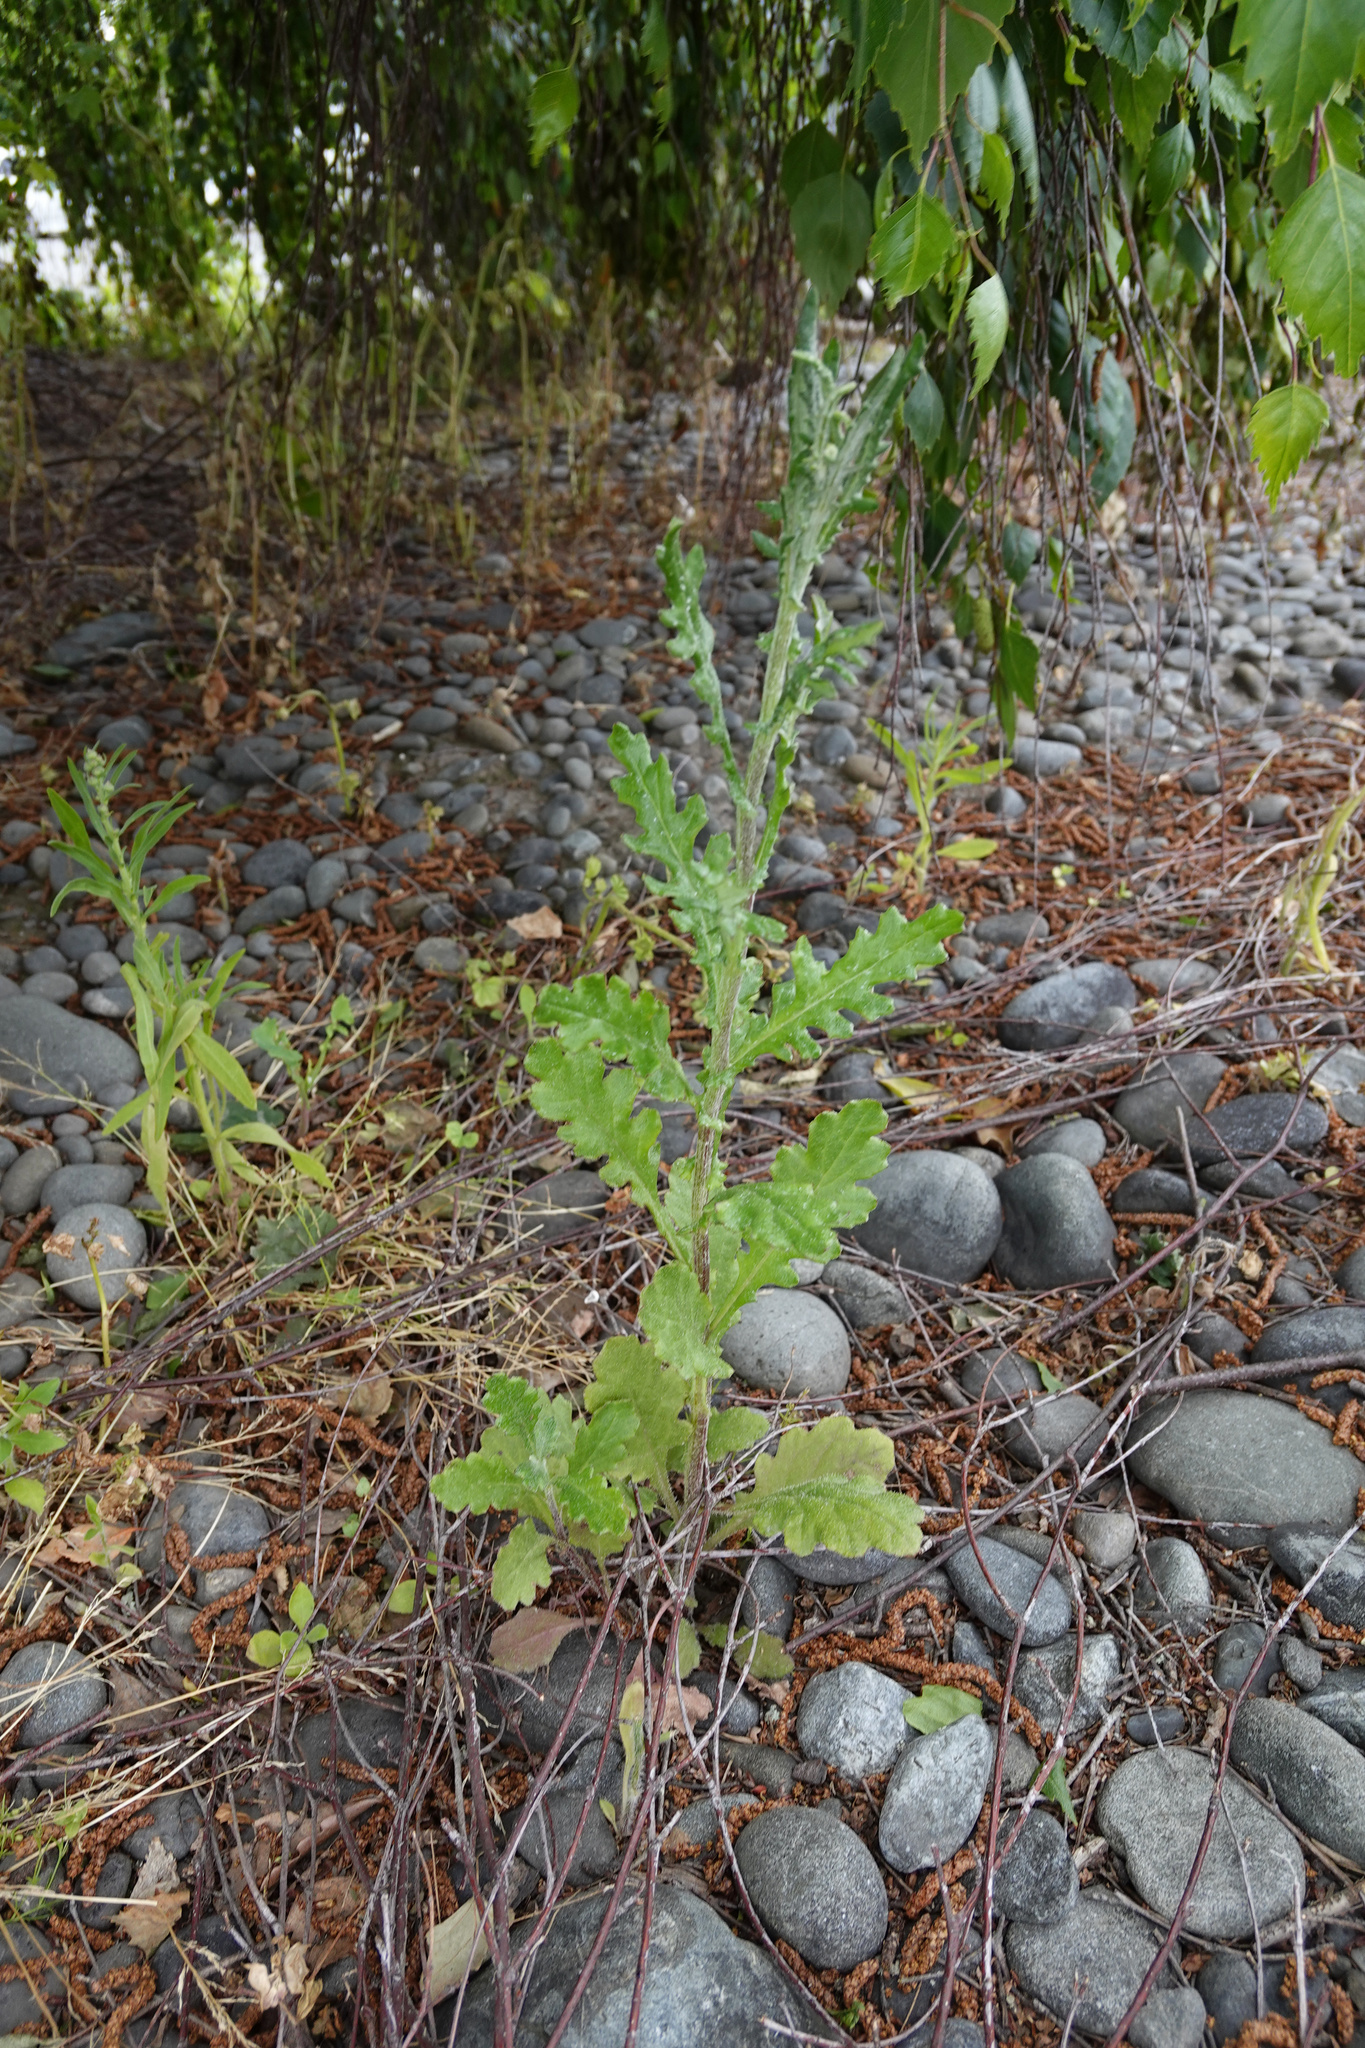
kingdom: Plantae
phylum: Tracheophyta
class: Magnoliopsida
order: Asterales
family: Asteraceae
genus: Senecio
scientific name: Senecio glomeratus
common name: Cutleaf burnweed
